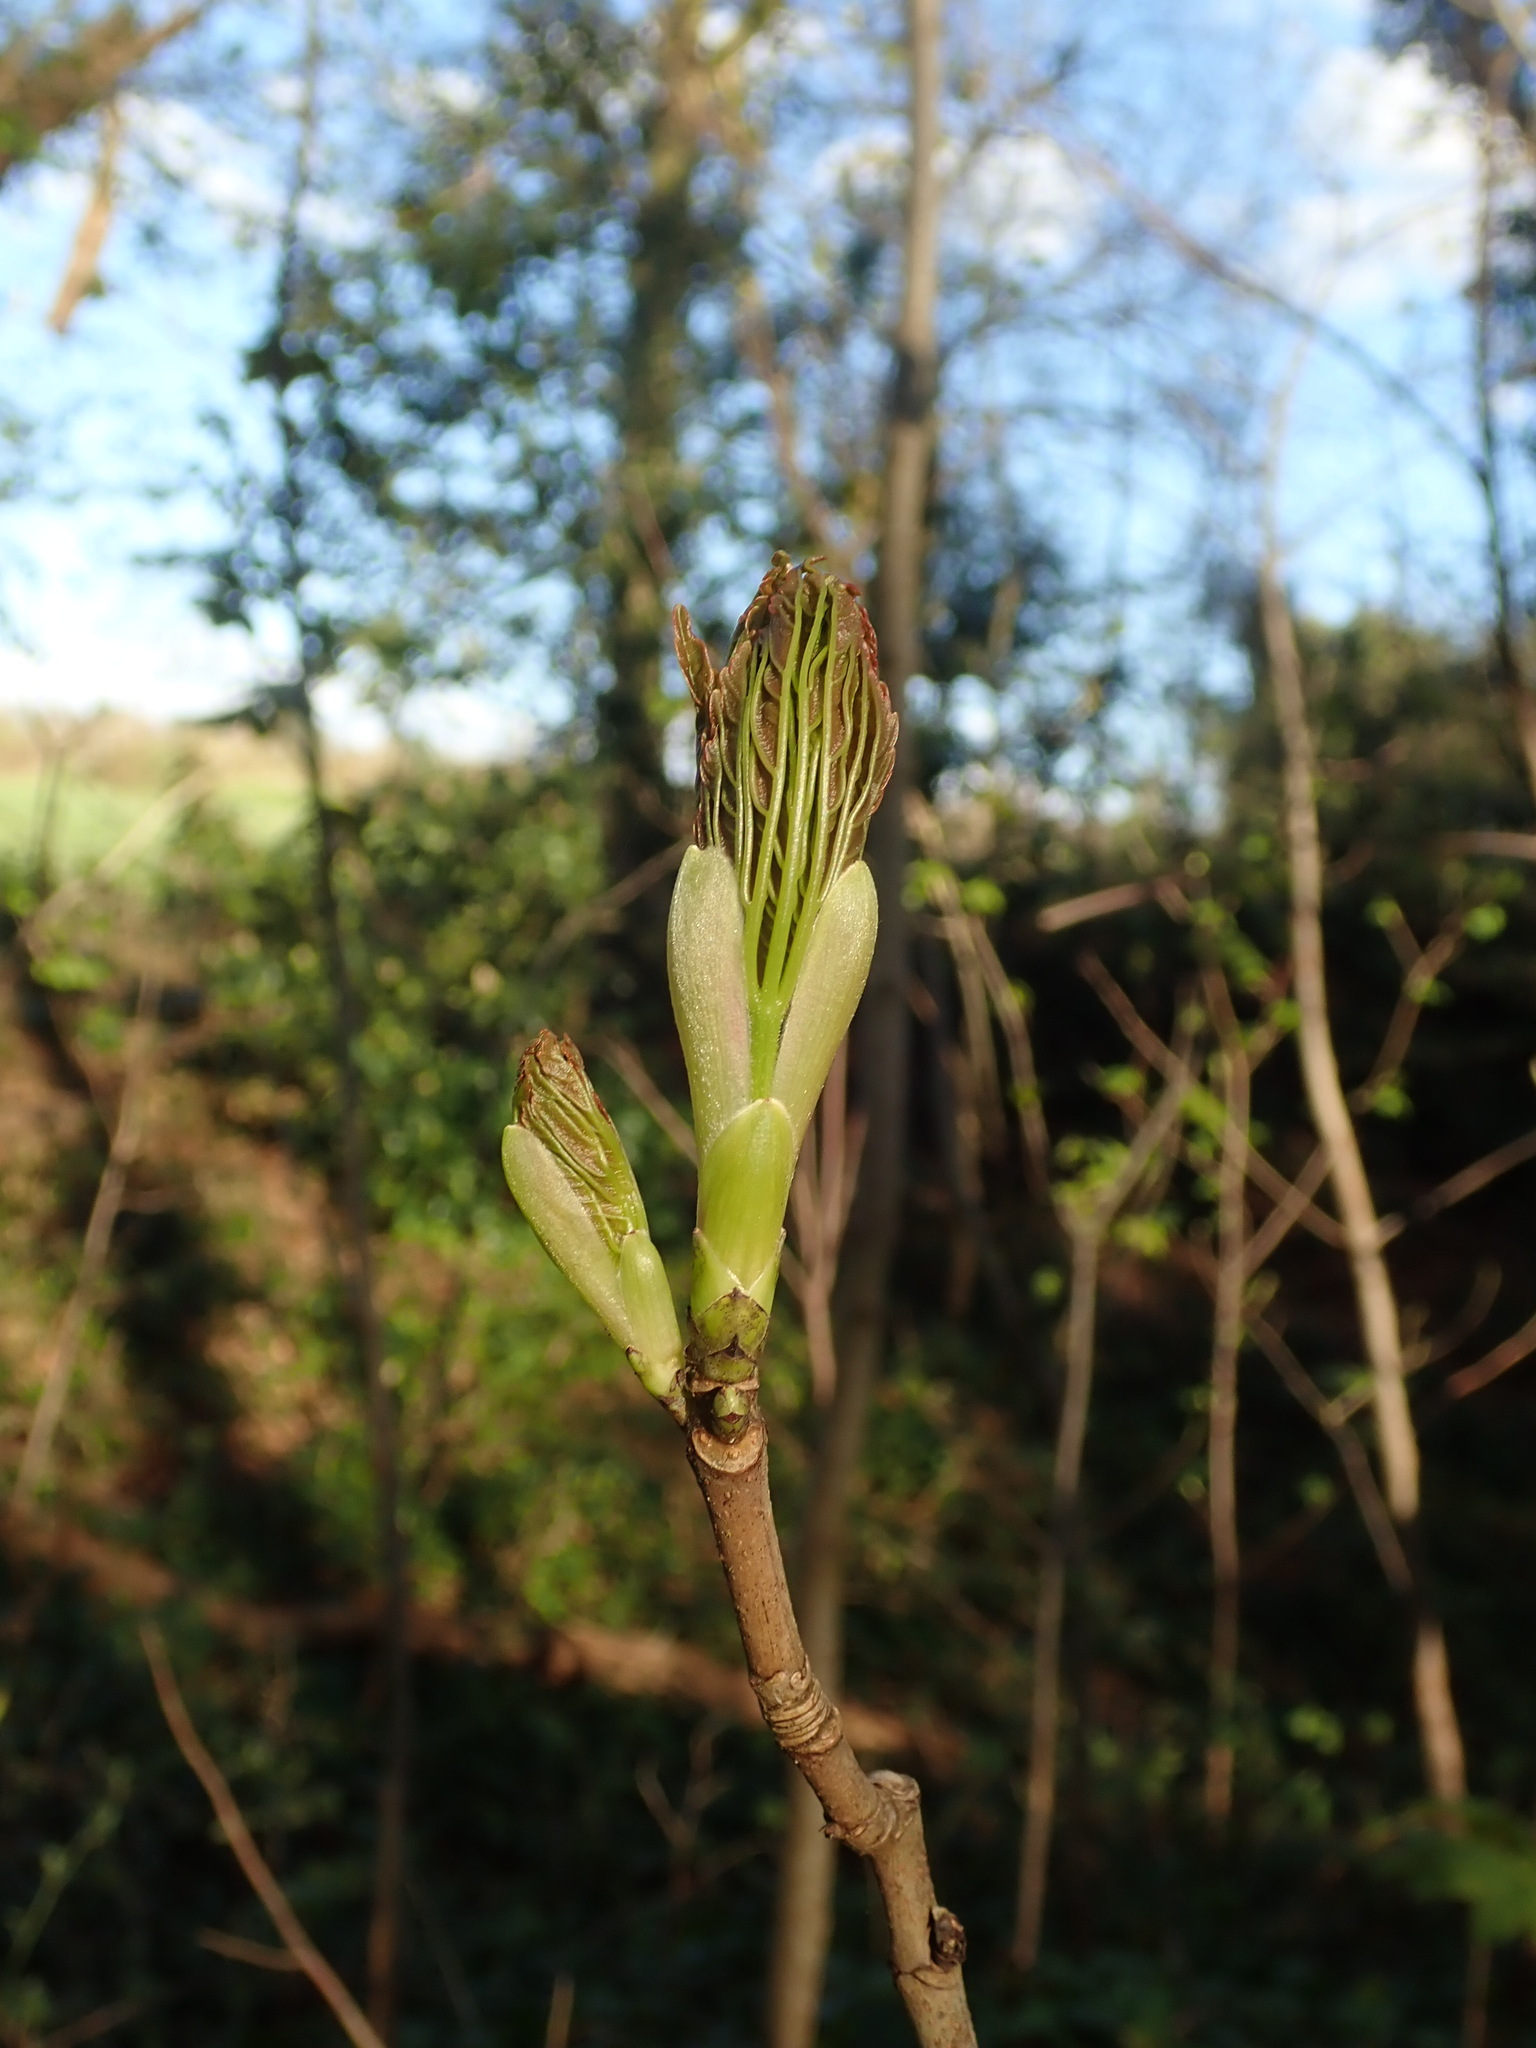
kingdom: Plantae
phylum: Tracheophyta
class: Magnoliopsida
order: Sapindales
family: Sapindaceae
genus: Acer
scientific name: Acer pseudoplatanus
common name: Sycamore
